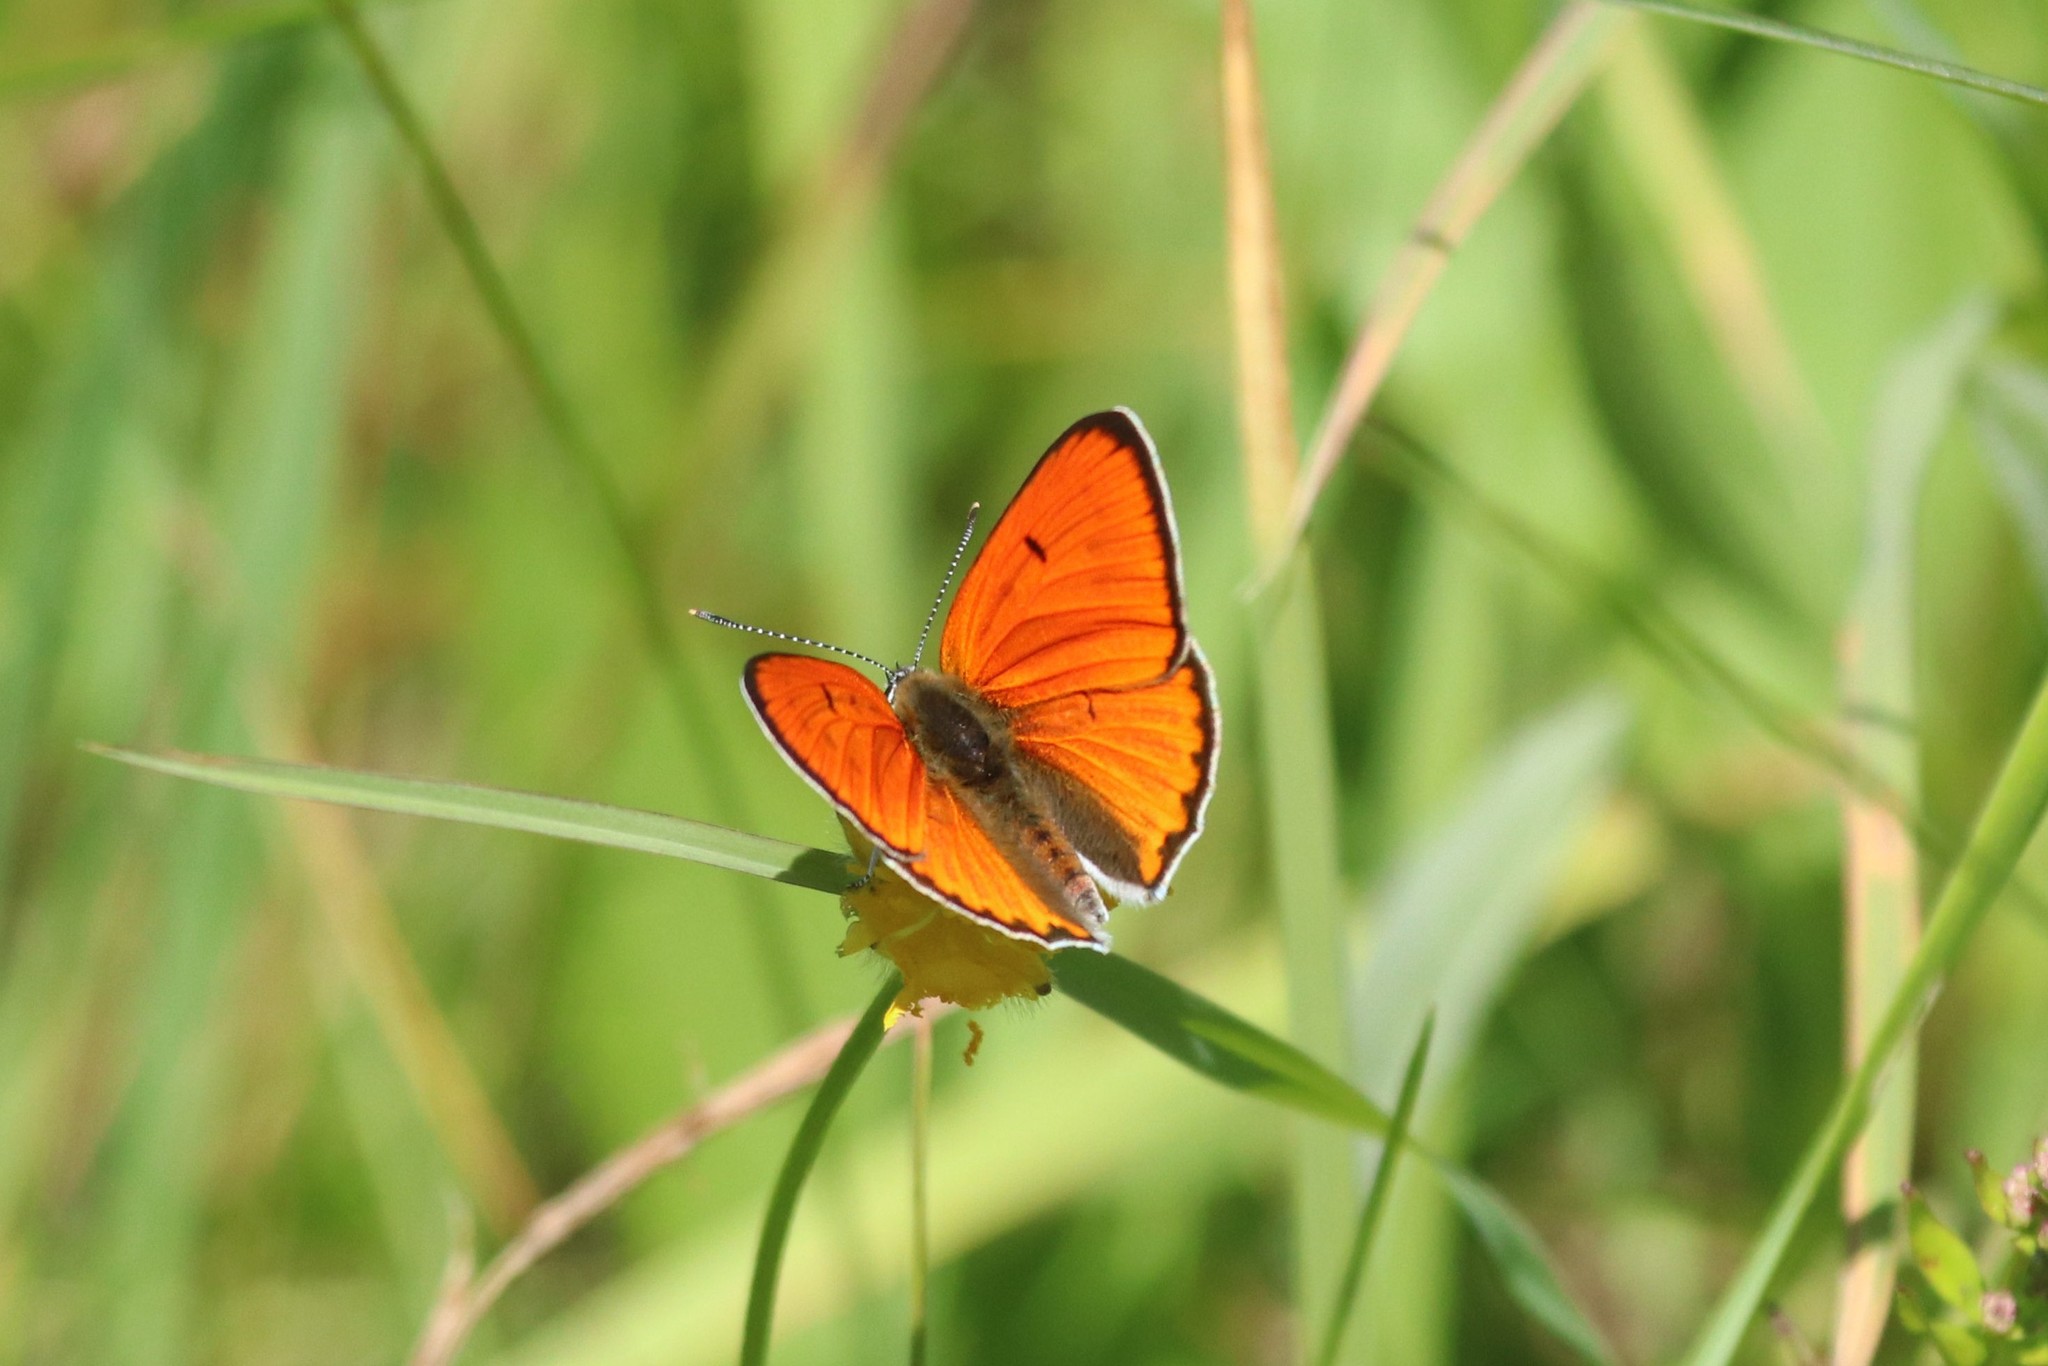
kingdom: Animalia
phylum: Arthropoda
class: Insecta
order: Lepidoptera
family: Lycaenidae
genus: Lycaena
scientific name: Lycaena dispar
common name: Large copper
